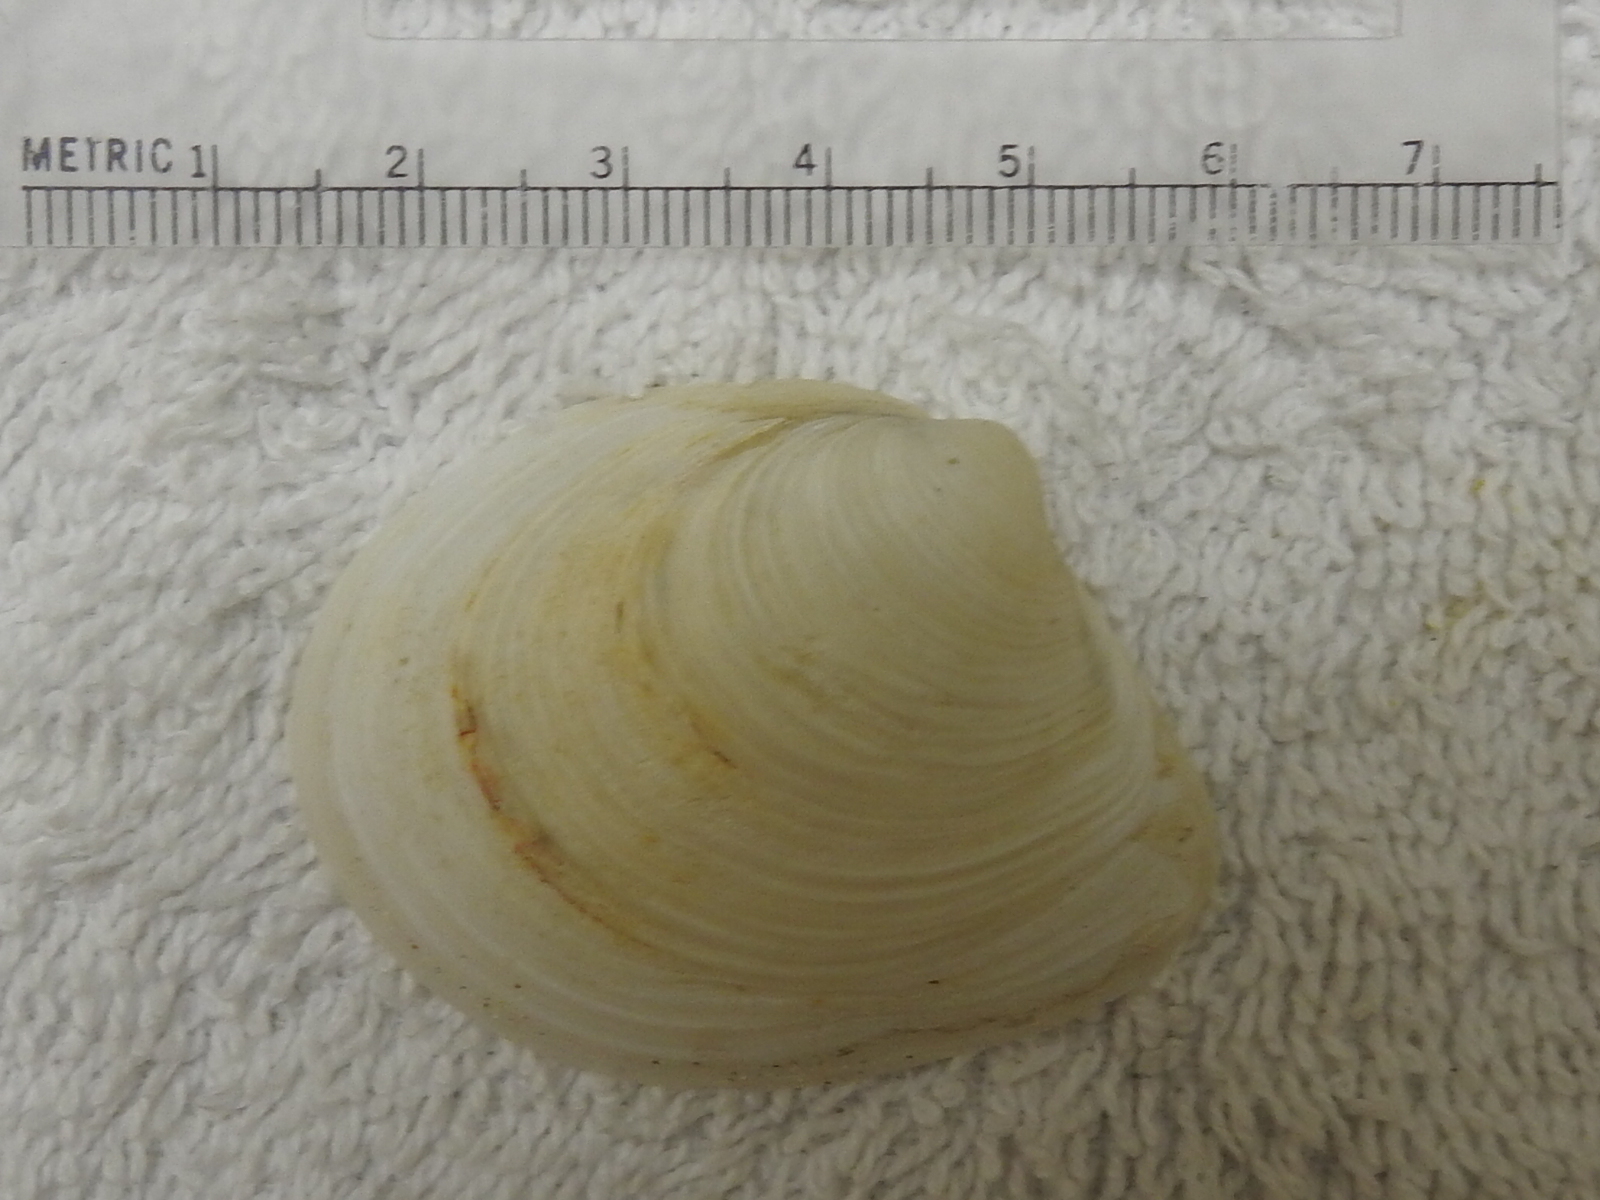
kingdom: Animalia
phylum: Mollusca
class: Bivalvia
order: Venerida
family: Anatinellidae
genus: Raeta
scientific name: Raeta plicatella
